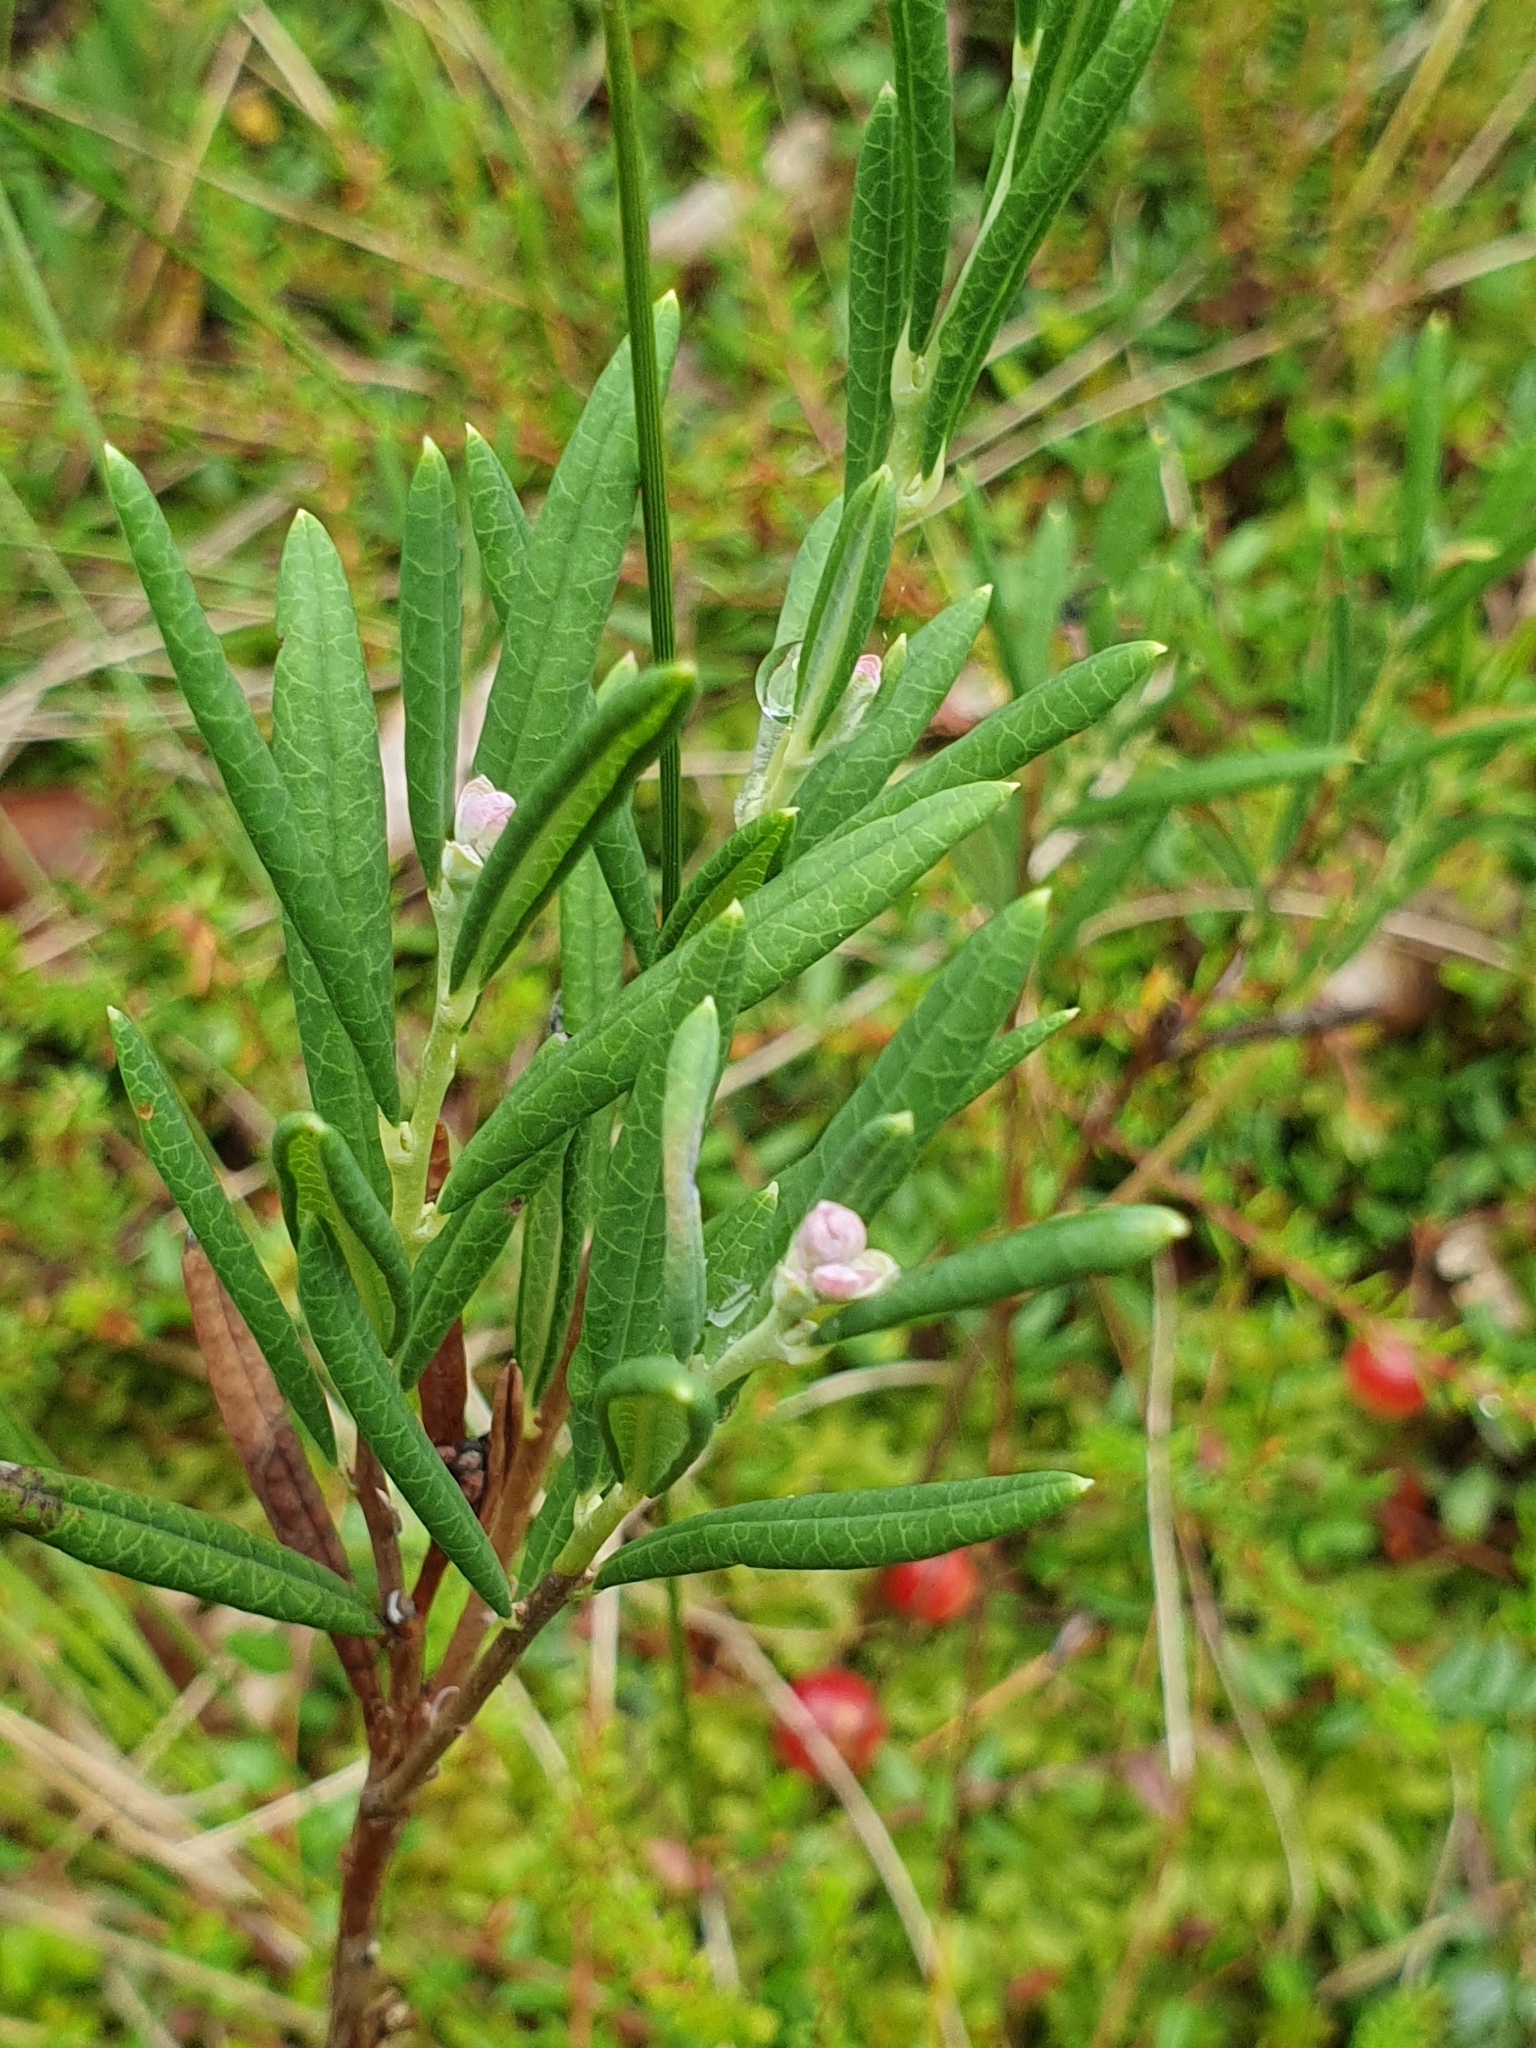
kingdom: Plantae
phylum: Tracheophyta
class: Magnoliopsida
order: Ericales
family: Ericaceae
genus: Andromeda
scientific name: Andromeda polifolia
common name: Bog-rosemary
